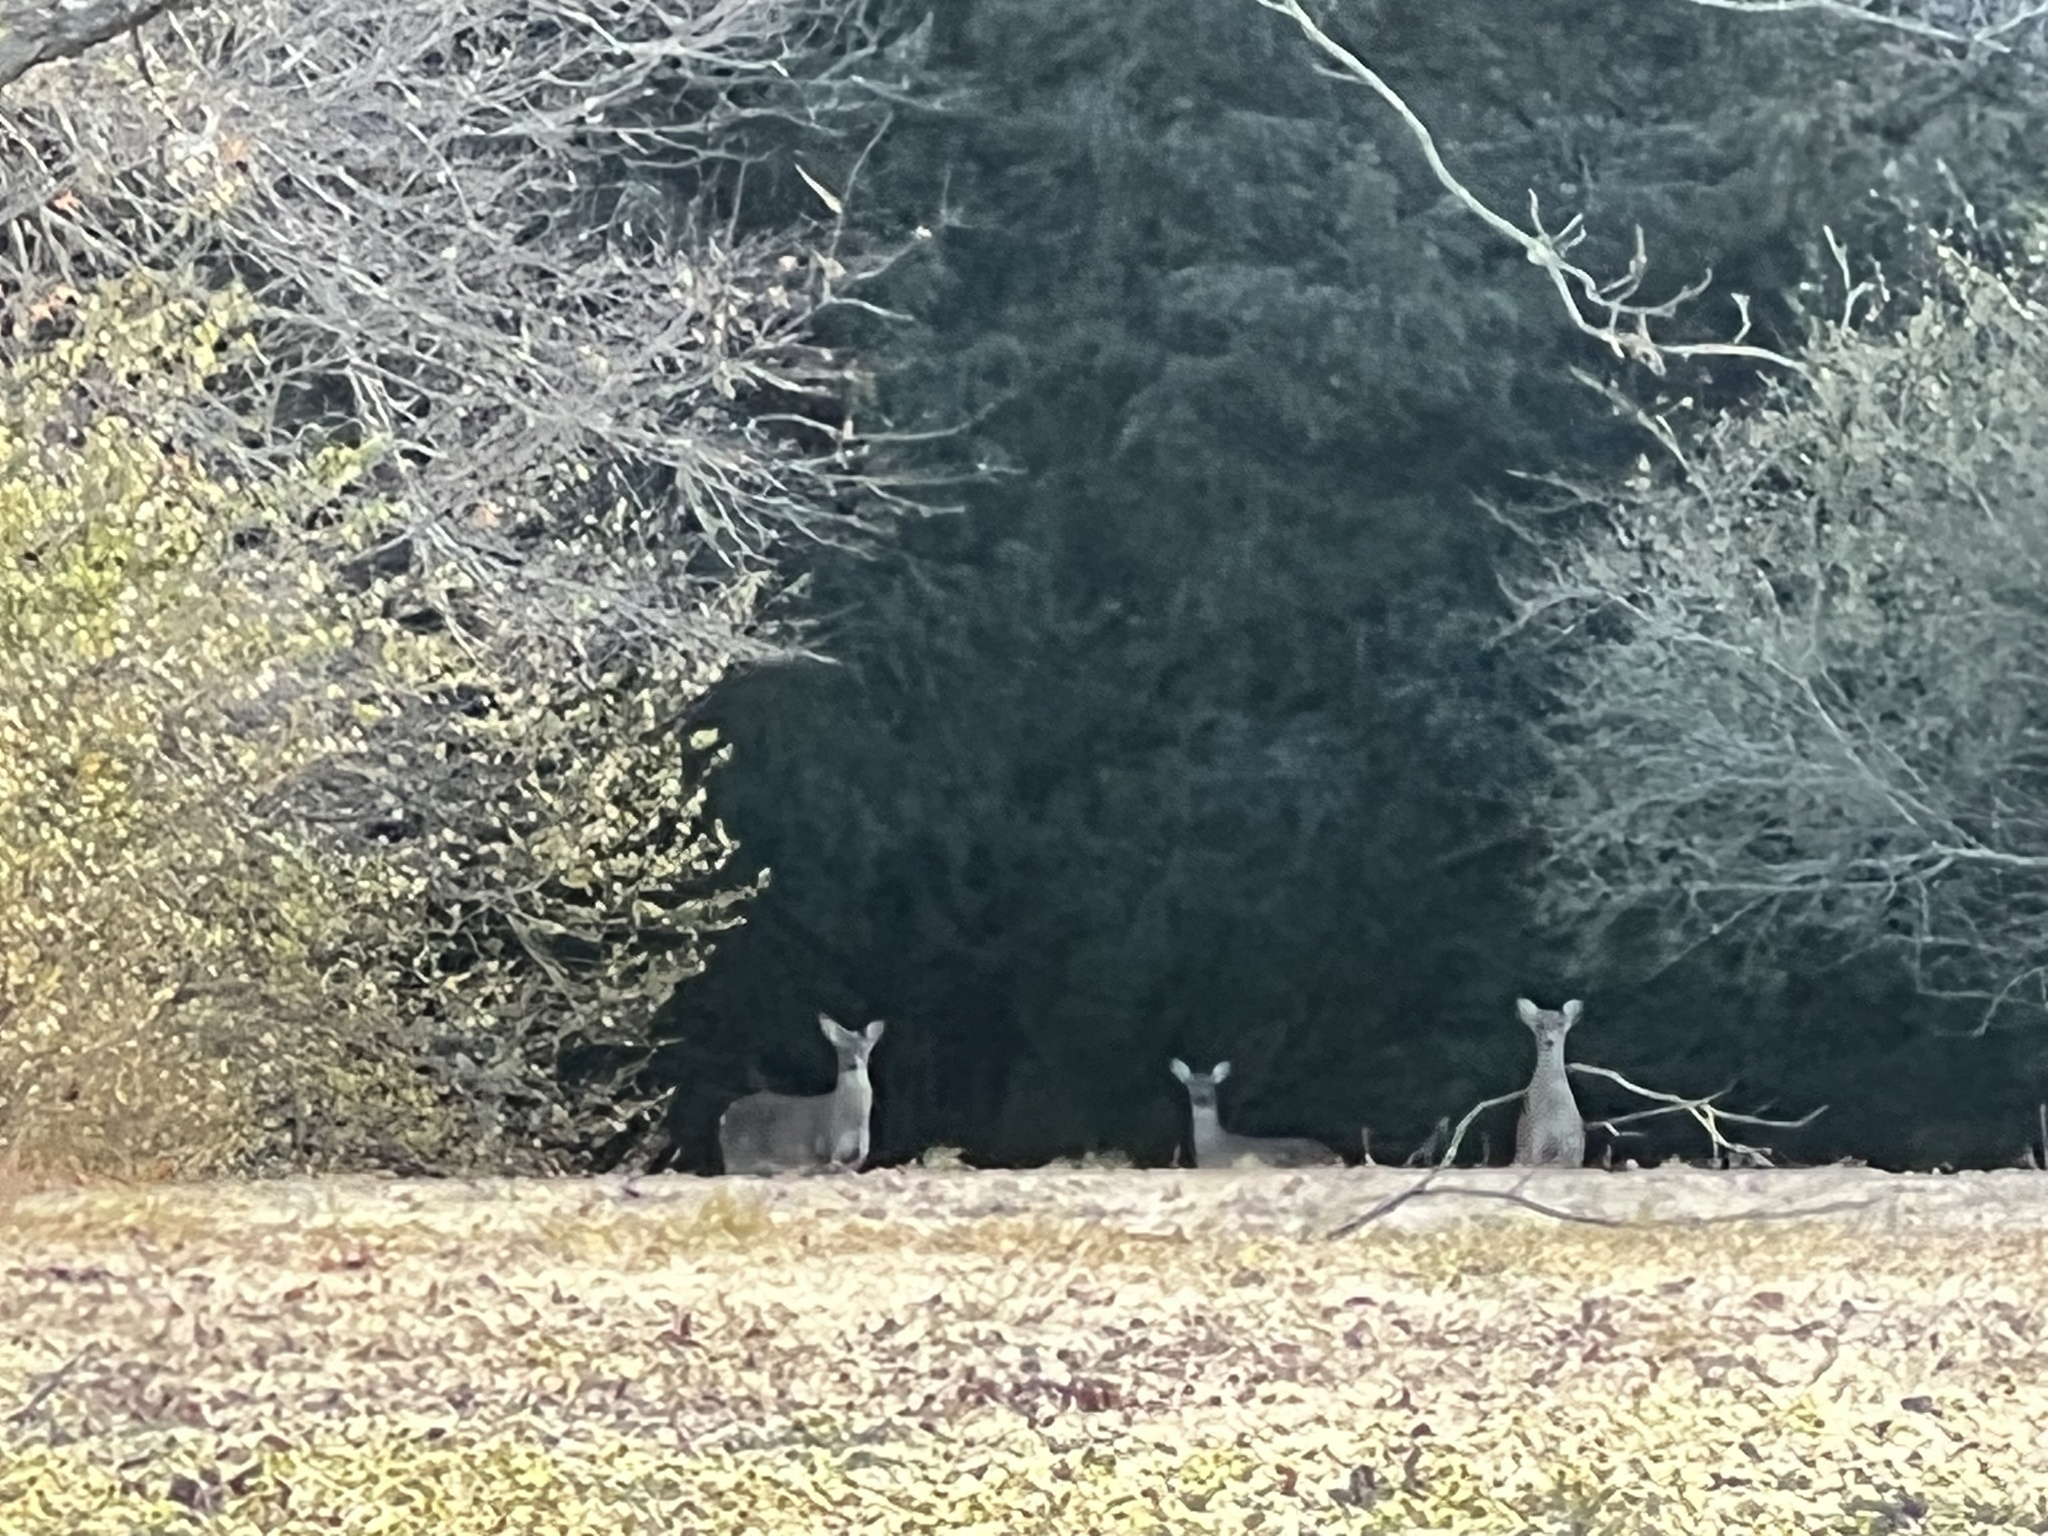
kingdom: Animalia
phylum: Chordata
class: Mammalia
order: Artiodactyla
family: Cervidae
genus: Odocoileus
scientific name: Odocoileus virginianus
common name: White-tailed deer
